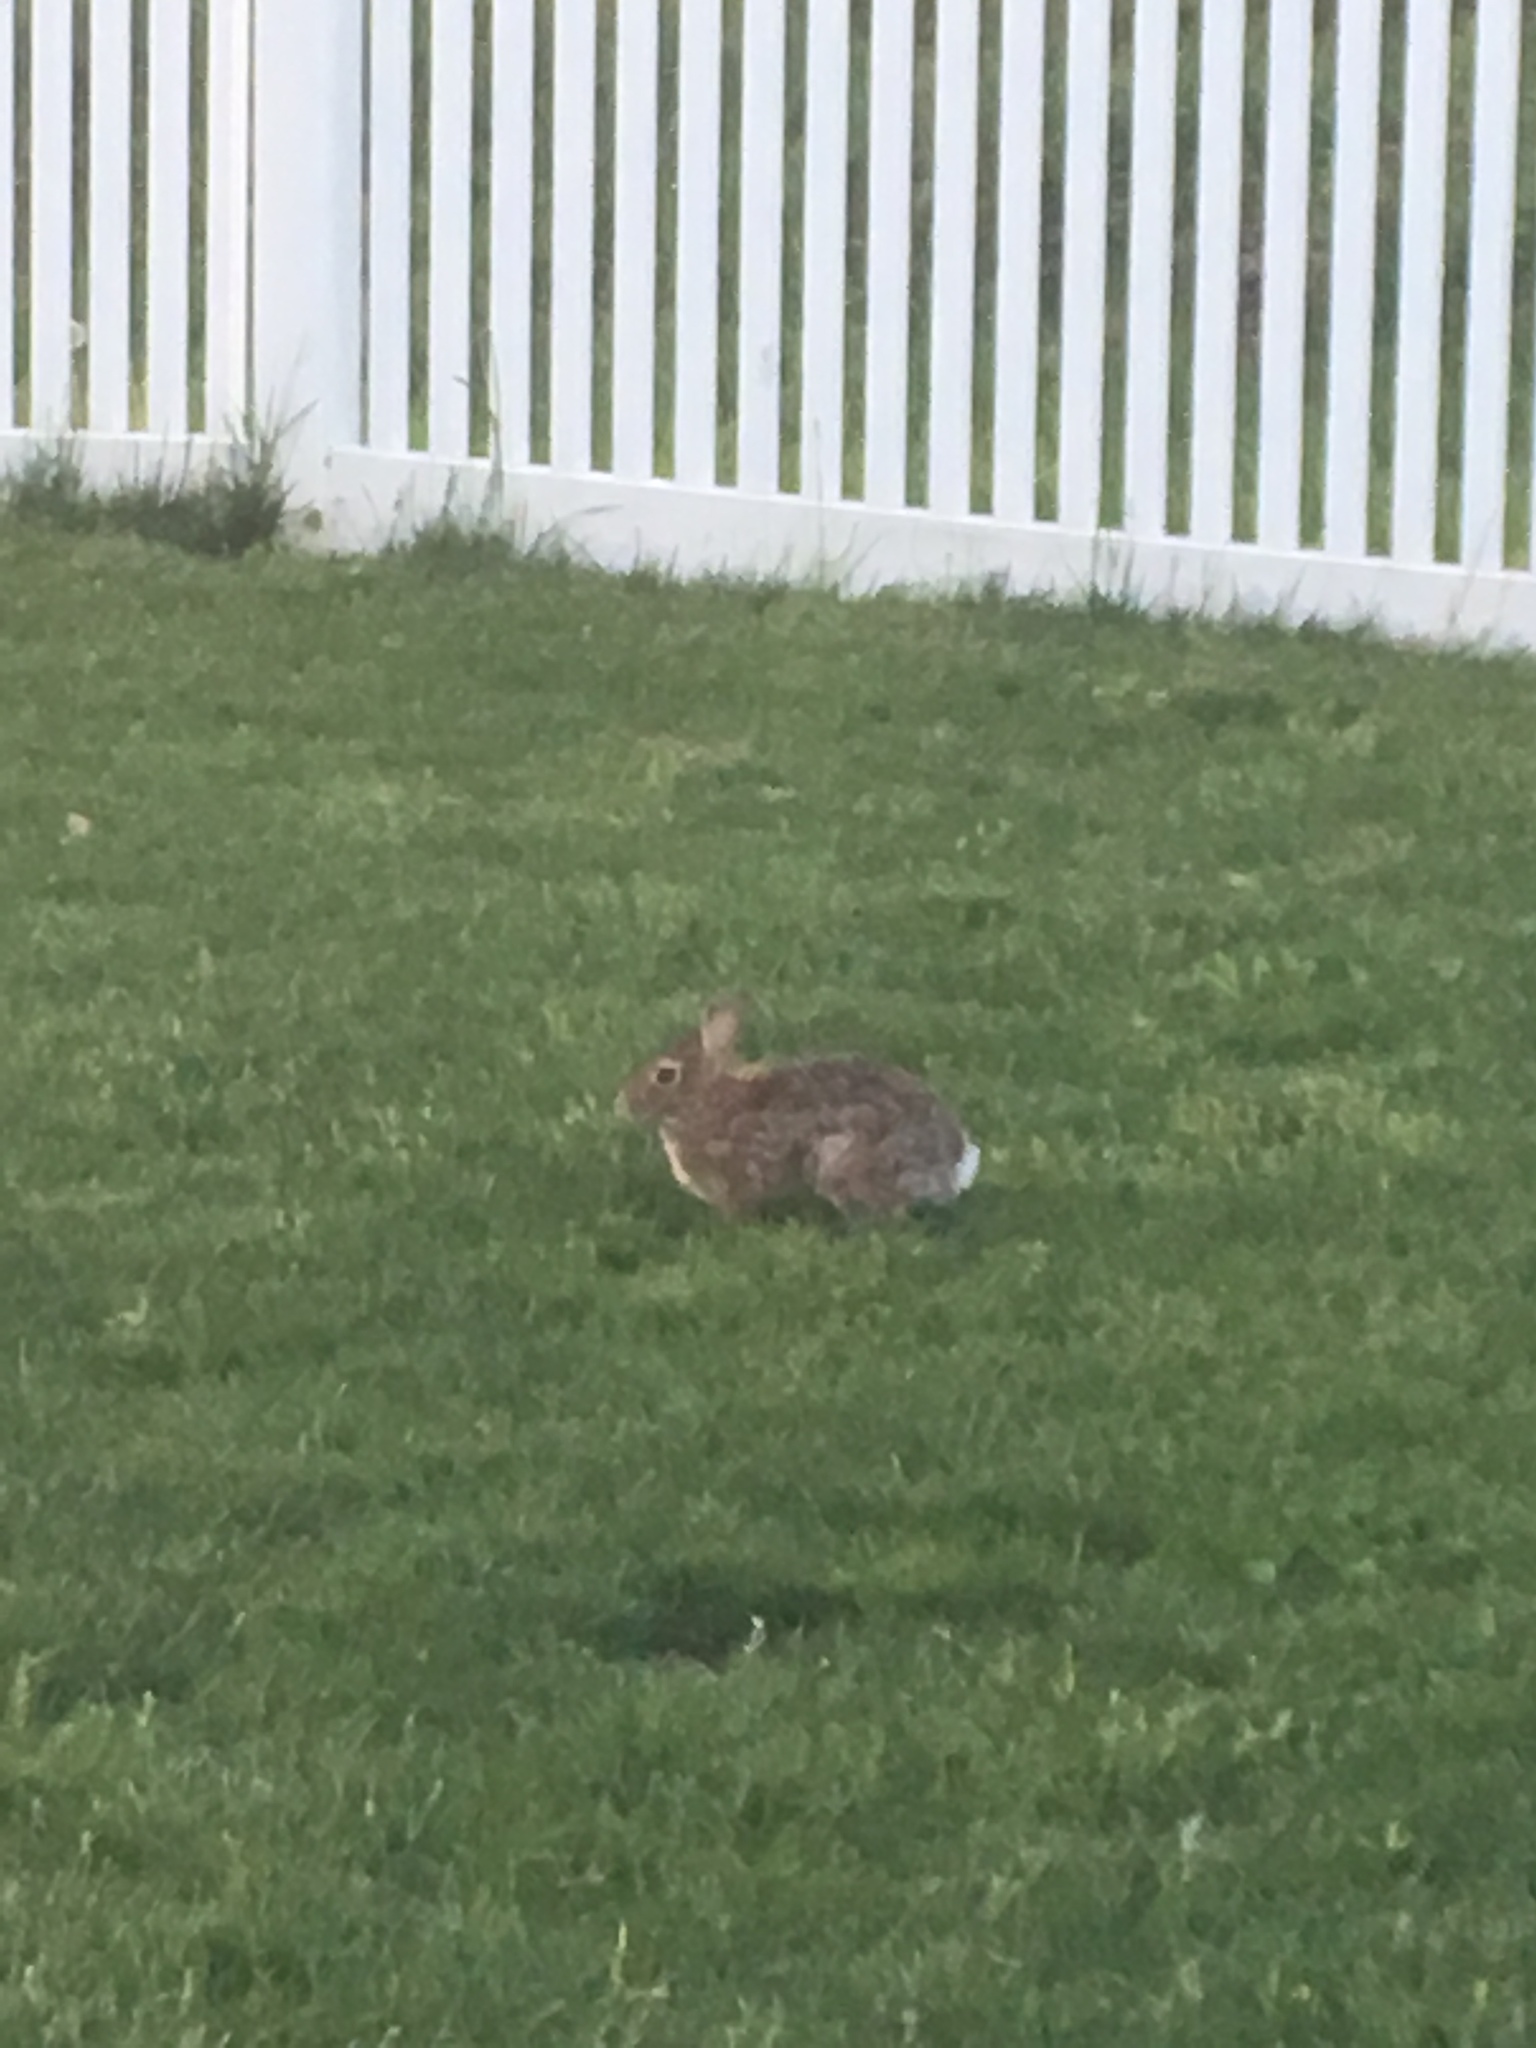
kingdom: Animalia
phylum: Chordata
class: Mammalia
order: Lagomorpha
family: Leporidae
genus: Sylvilagus
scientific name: Sylvilagus floridanus
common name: Eastern cottontail
